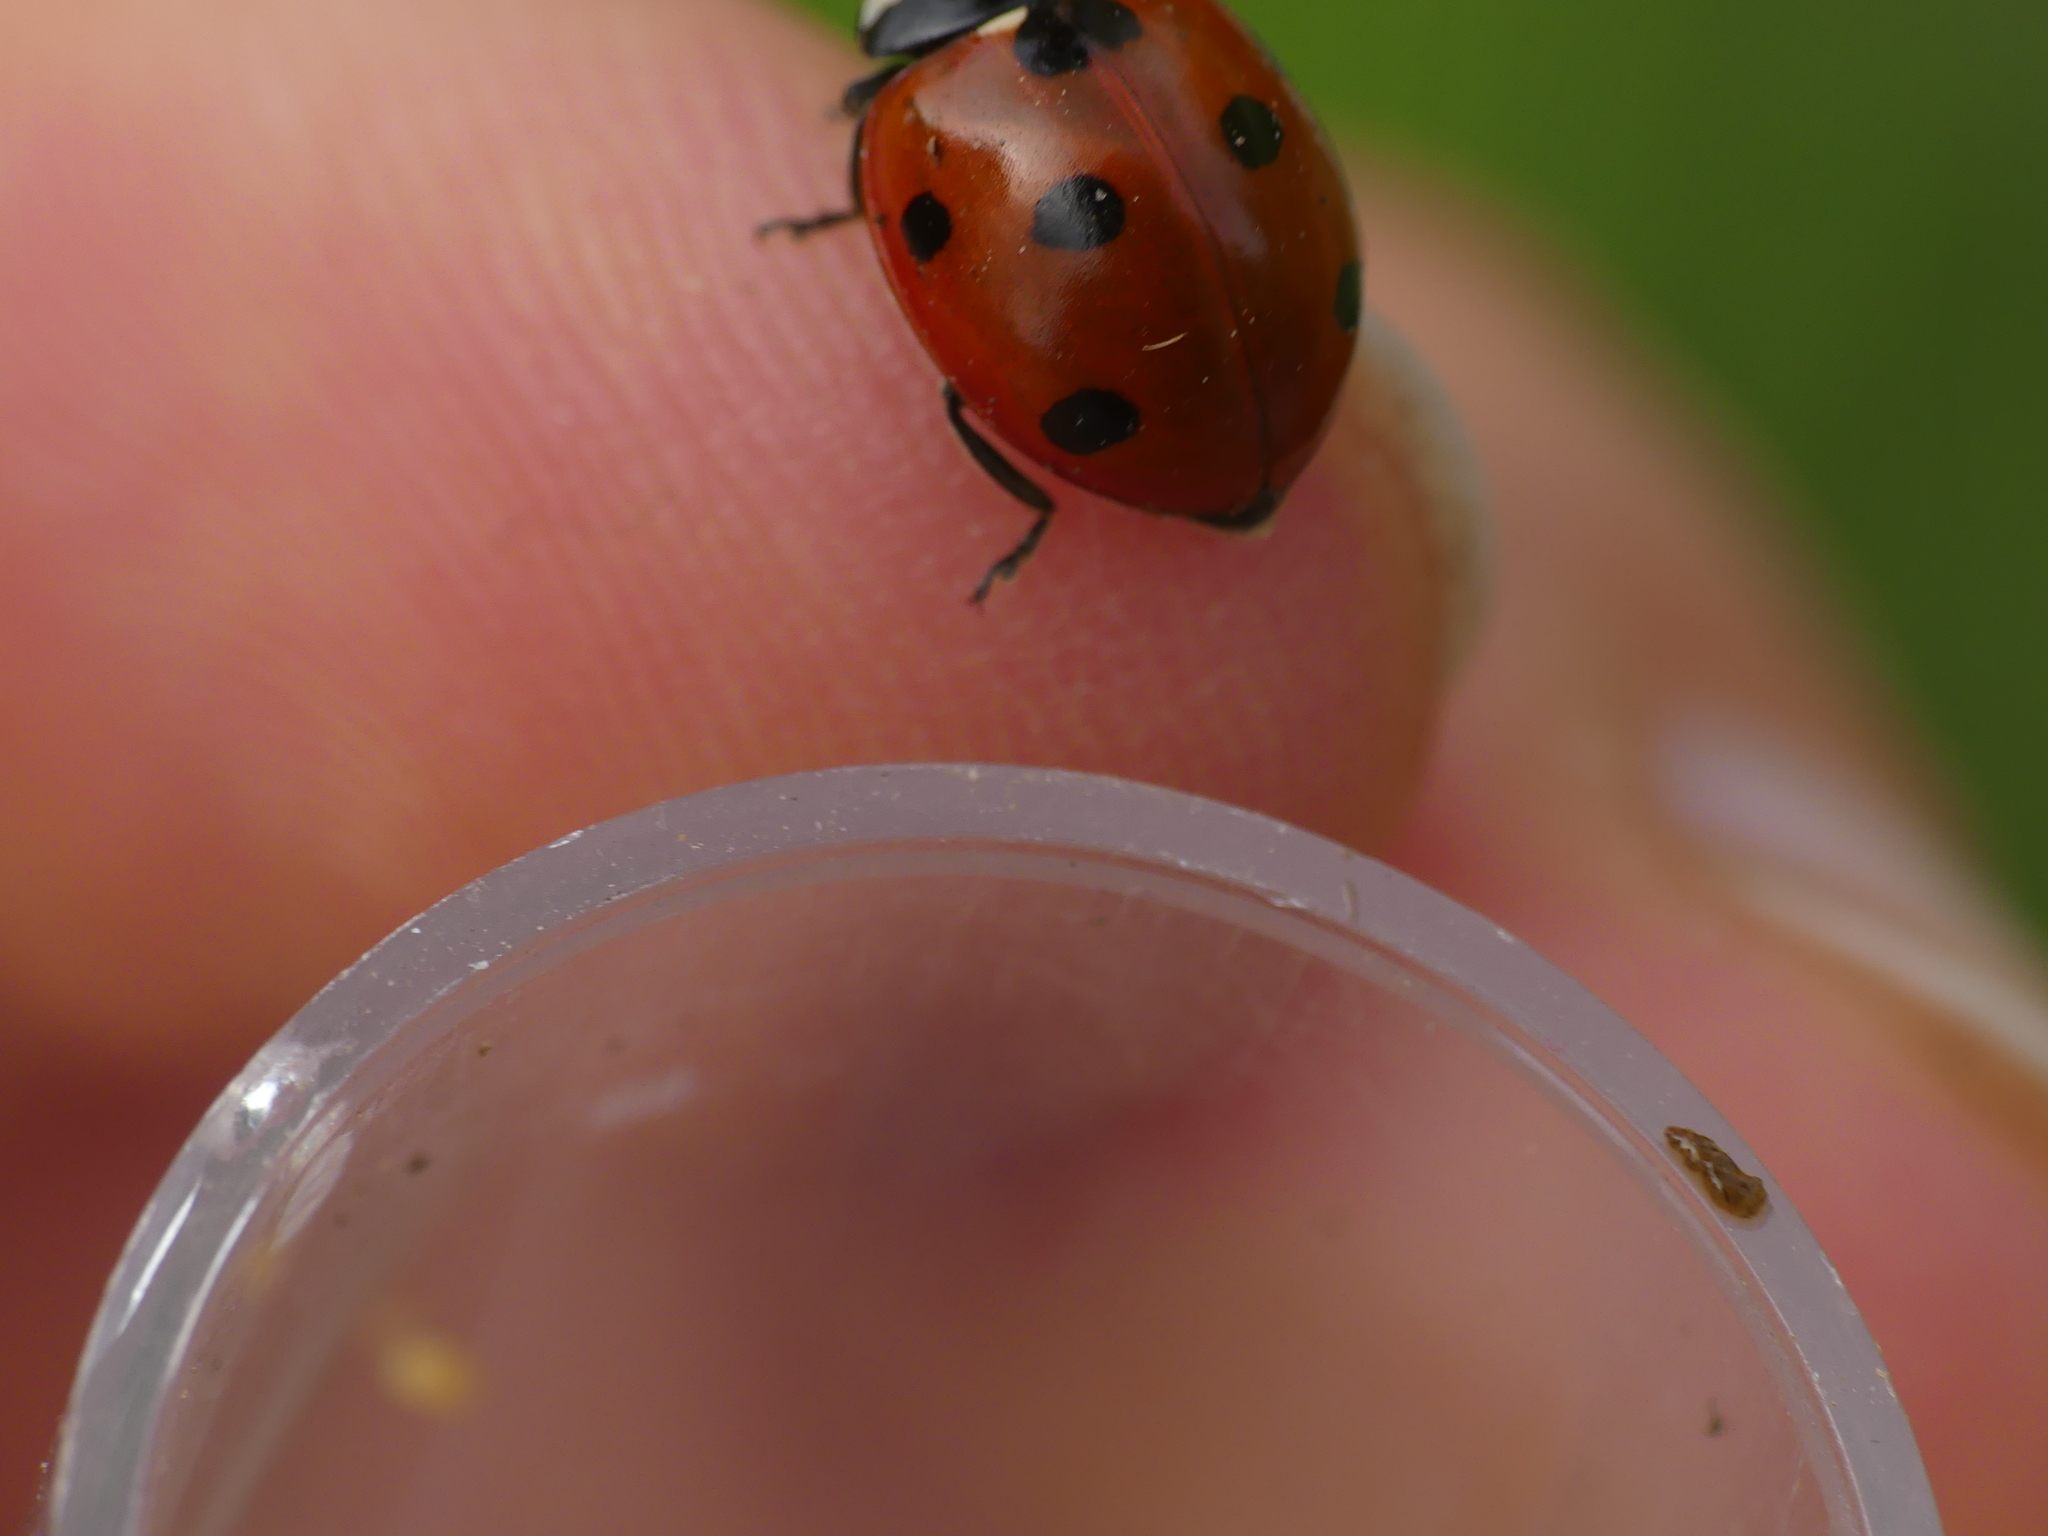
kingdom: Animalia
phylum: Arthropoda
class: Insecta
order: Coleoptera
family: Coccinellidae
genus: Coccinella
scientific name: Coccinella septempunctata
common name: Sevenspotted lady beetle
